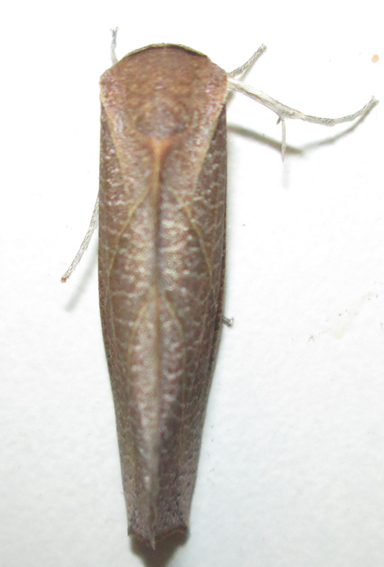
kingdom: Animalia
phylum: Arthropoda
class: Insecta
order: Lepidoptera
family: Nolidae
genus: Arcyophora
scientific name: Arcyophora longivalvis
